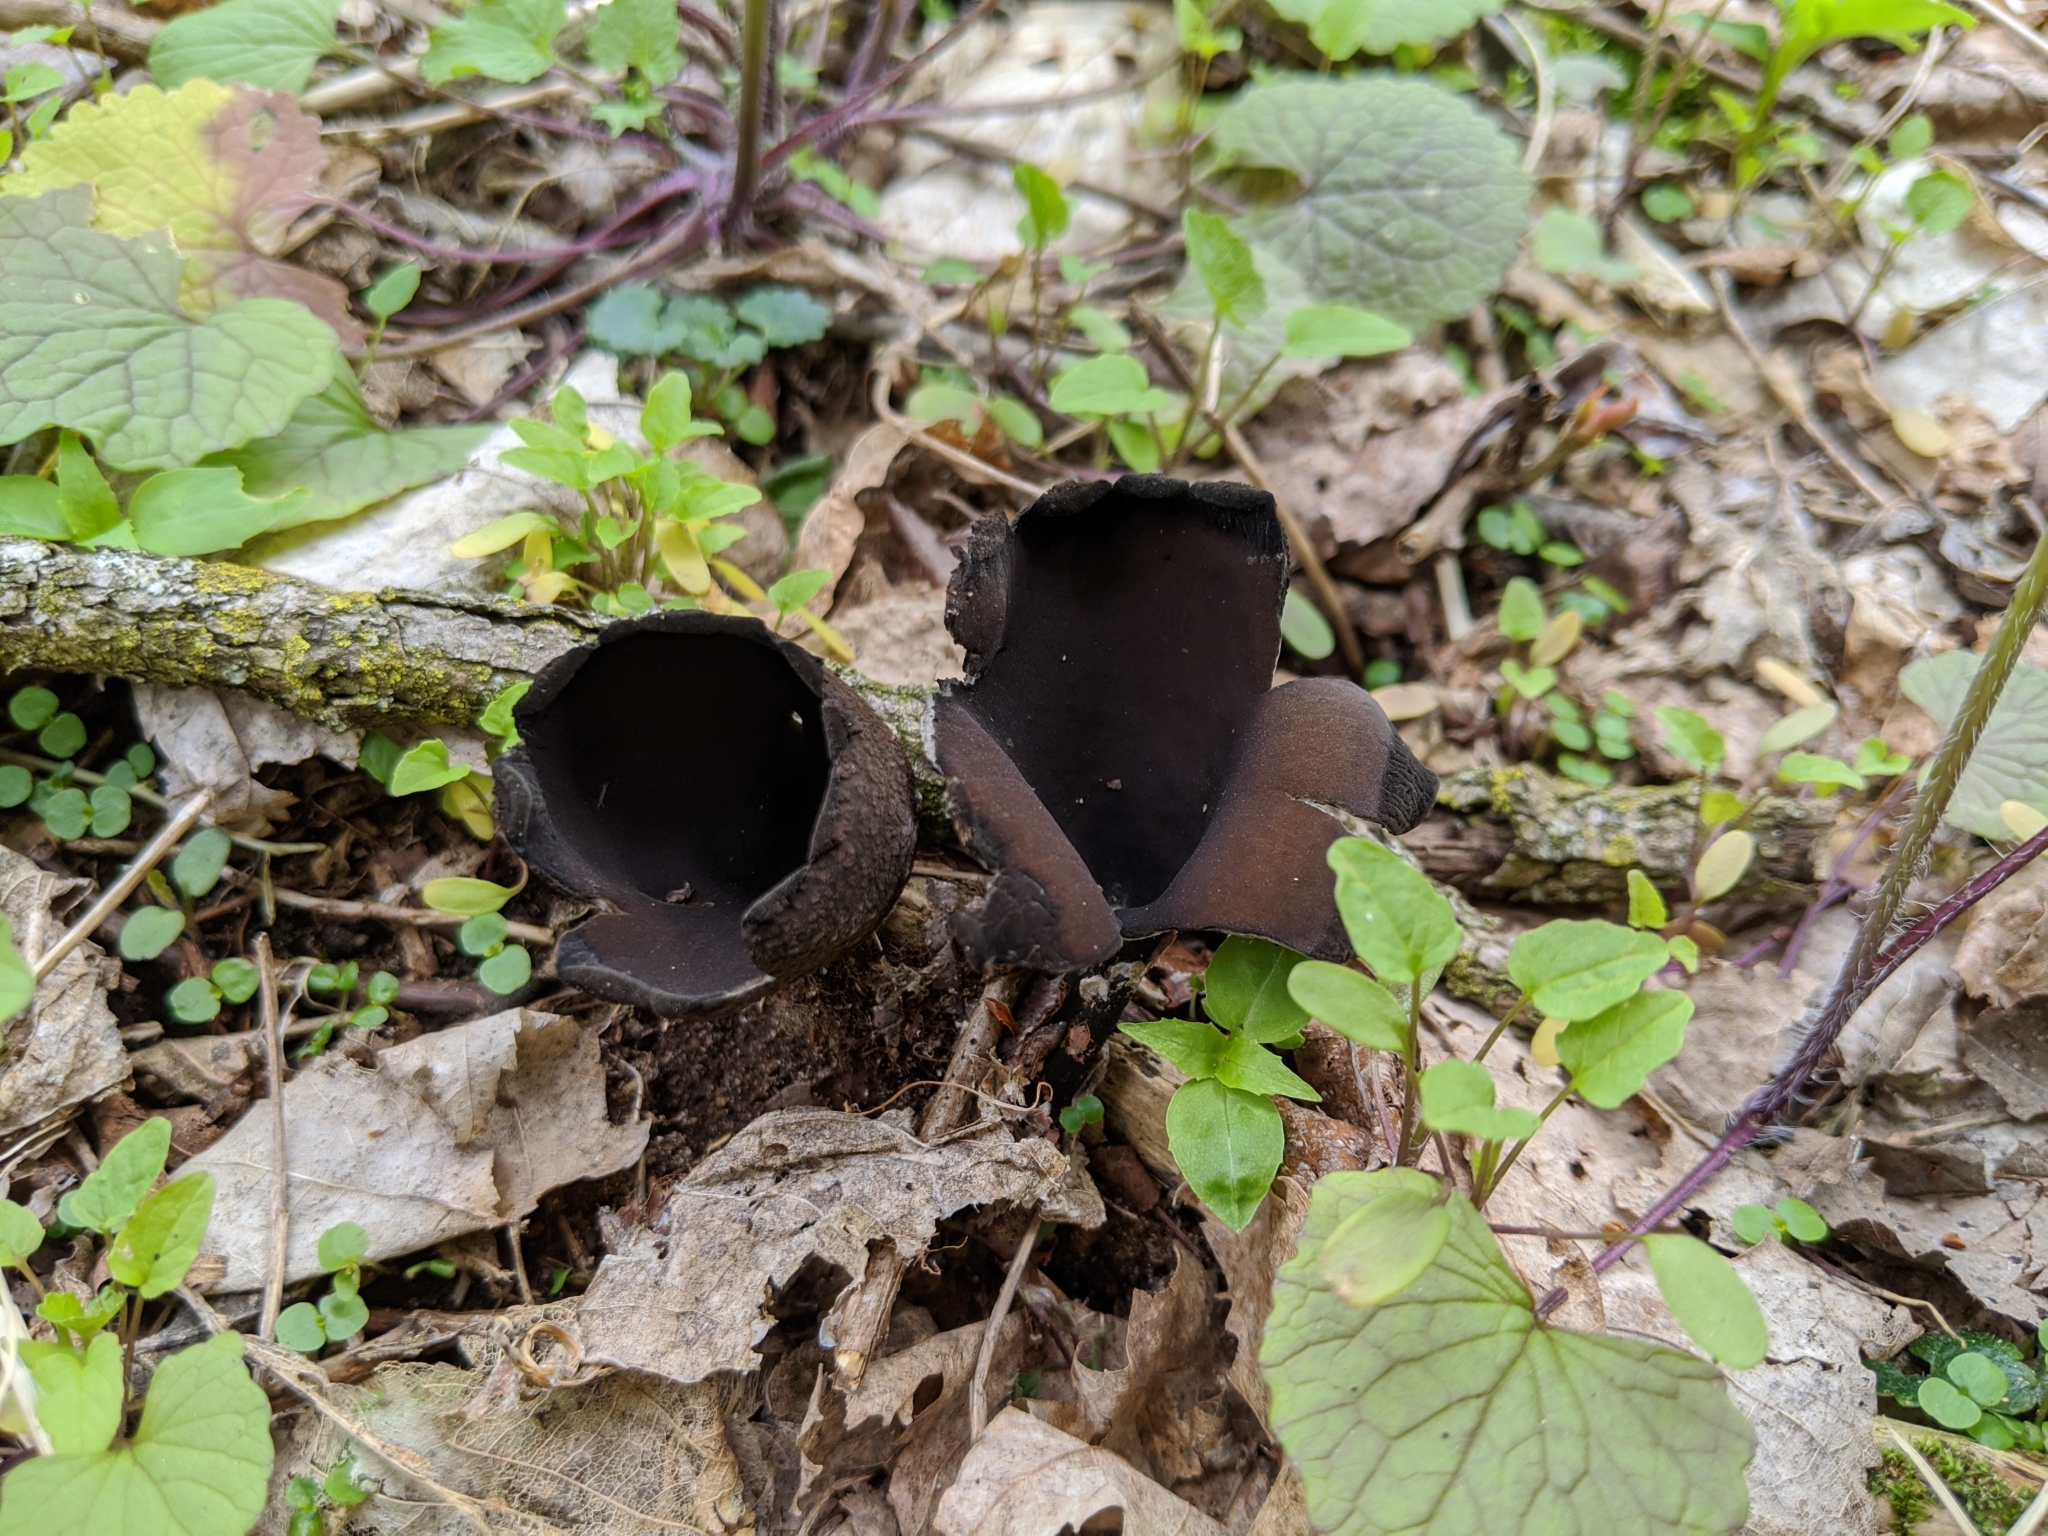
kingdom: Fungi
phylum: Ascomycota
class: Pezizomycetes
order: Pezizales
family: Sarcosomataceae
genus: Urnula
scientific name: Urnula craterium
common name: Devil's urn
